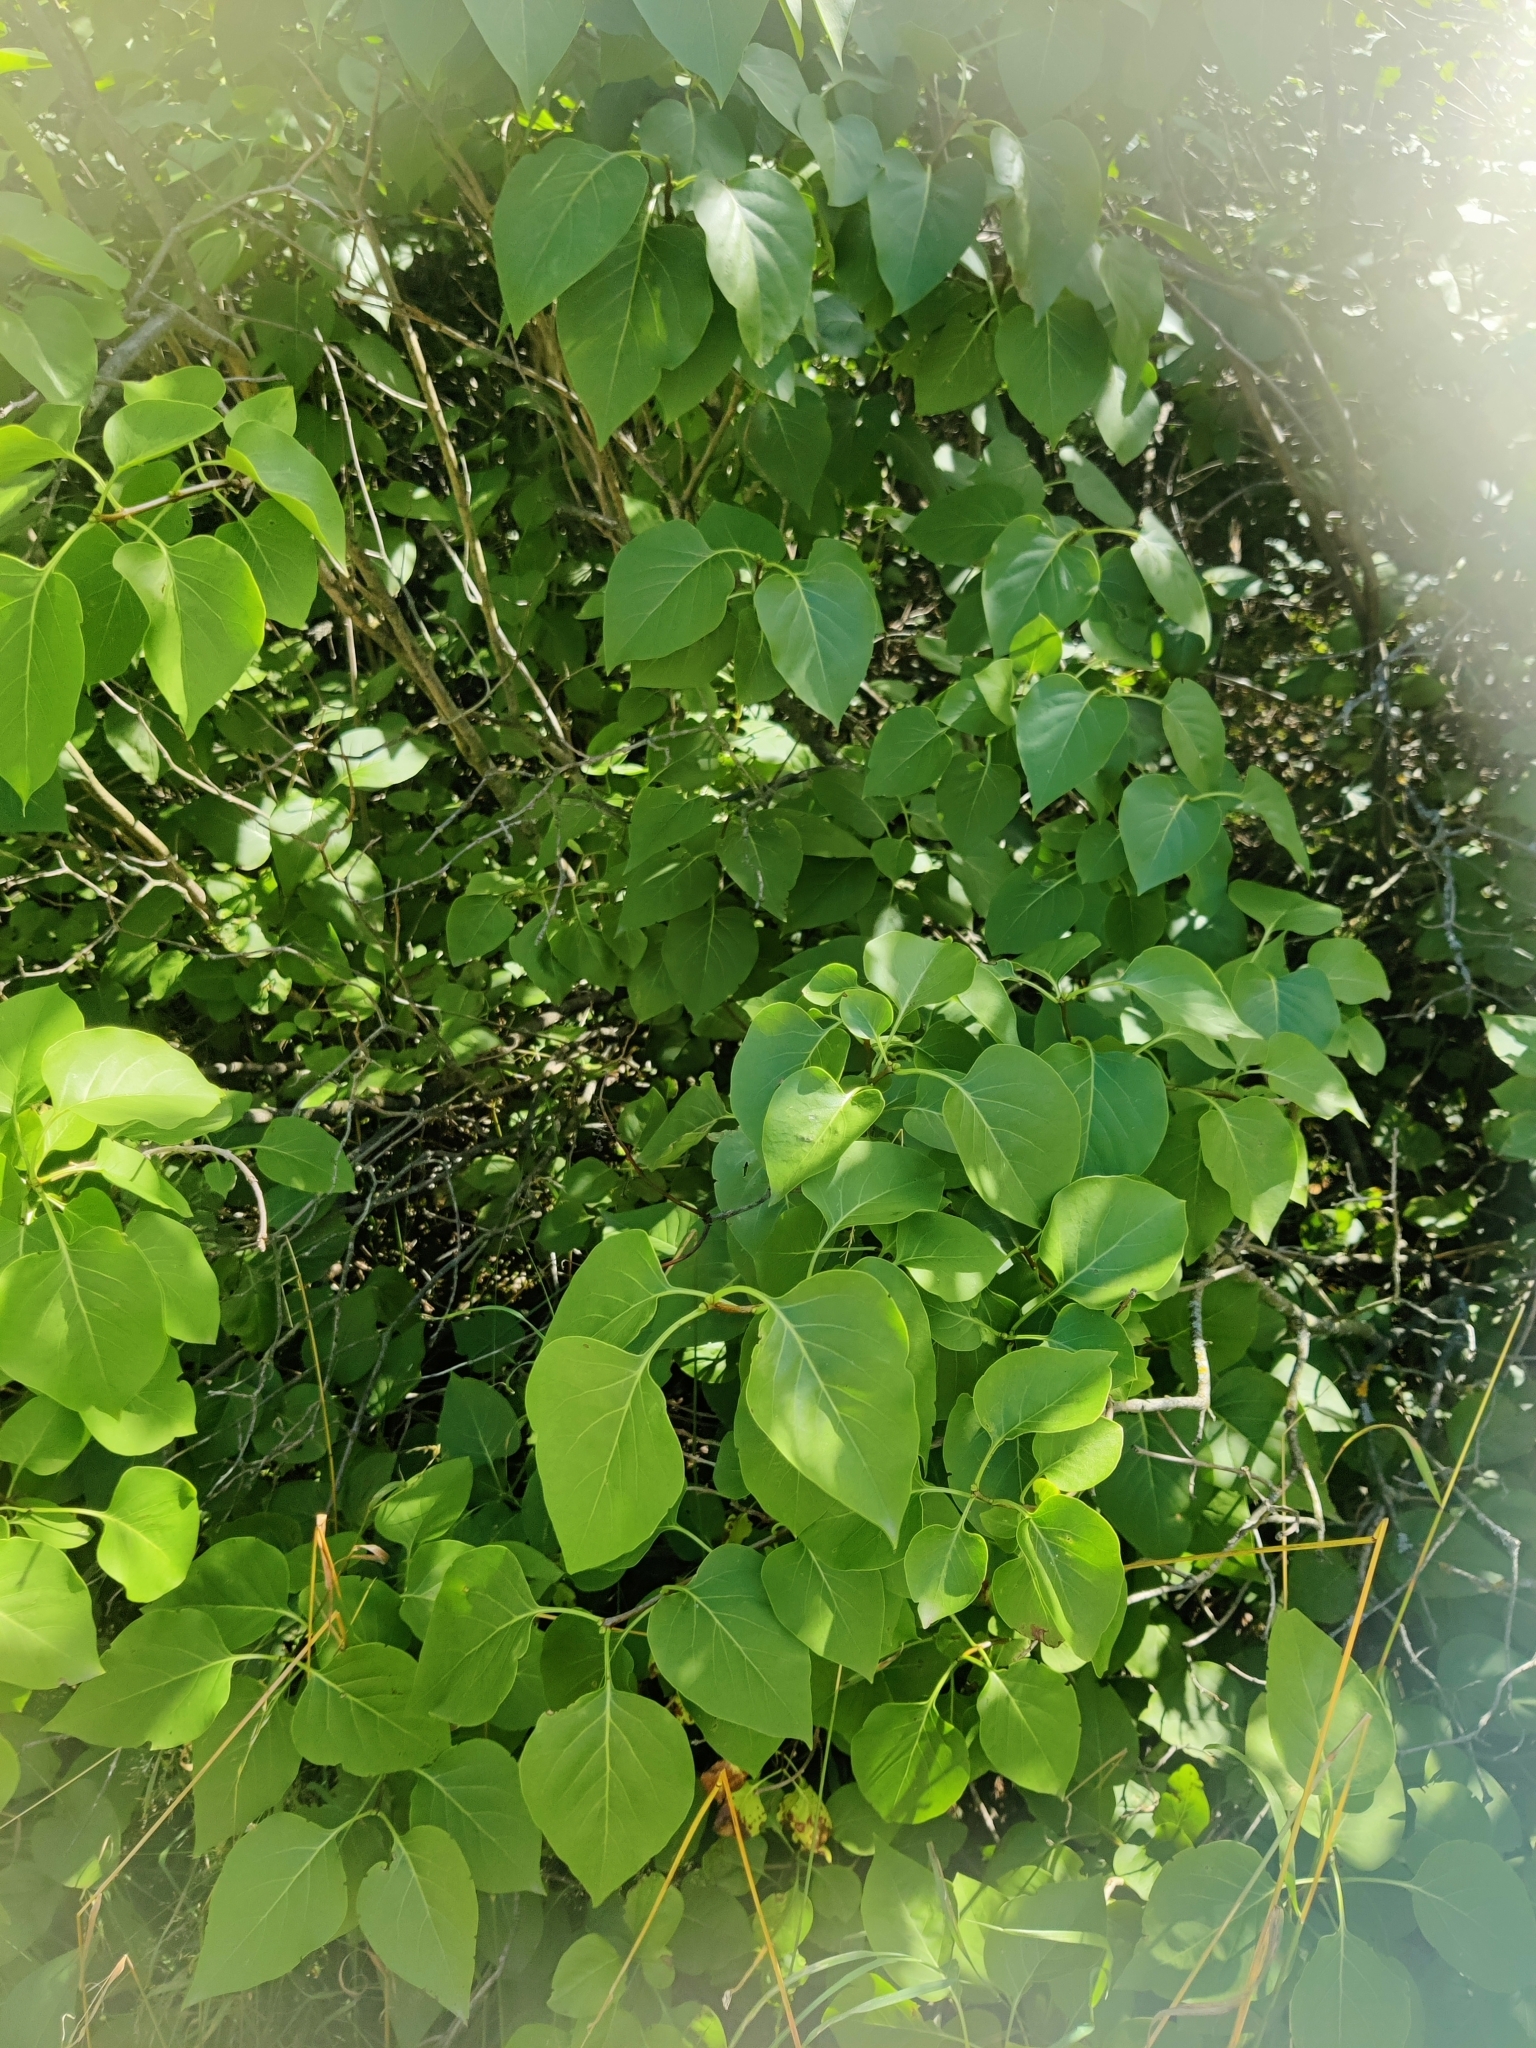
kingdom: Plantae
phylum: Tracheophyta
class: Magnoliopsida
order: Lamiales
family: Oleaceae
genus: Syringa
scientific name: Syringa vulgaris
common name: Common lilac
